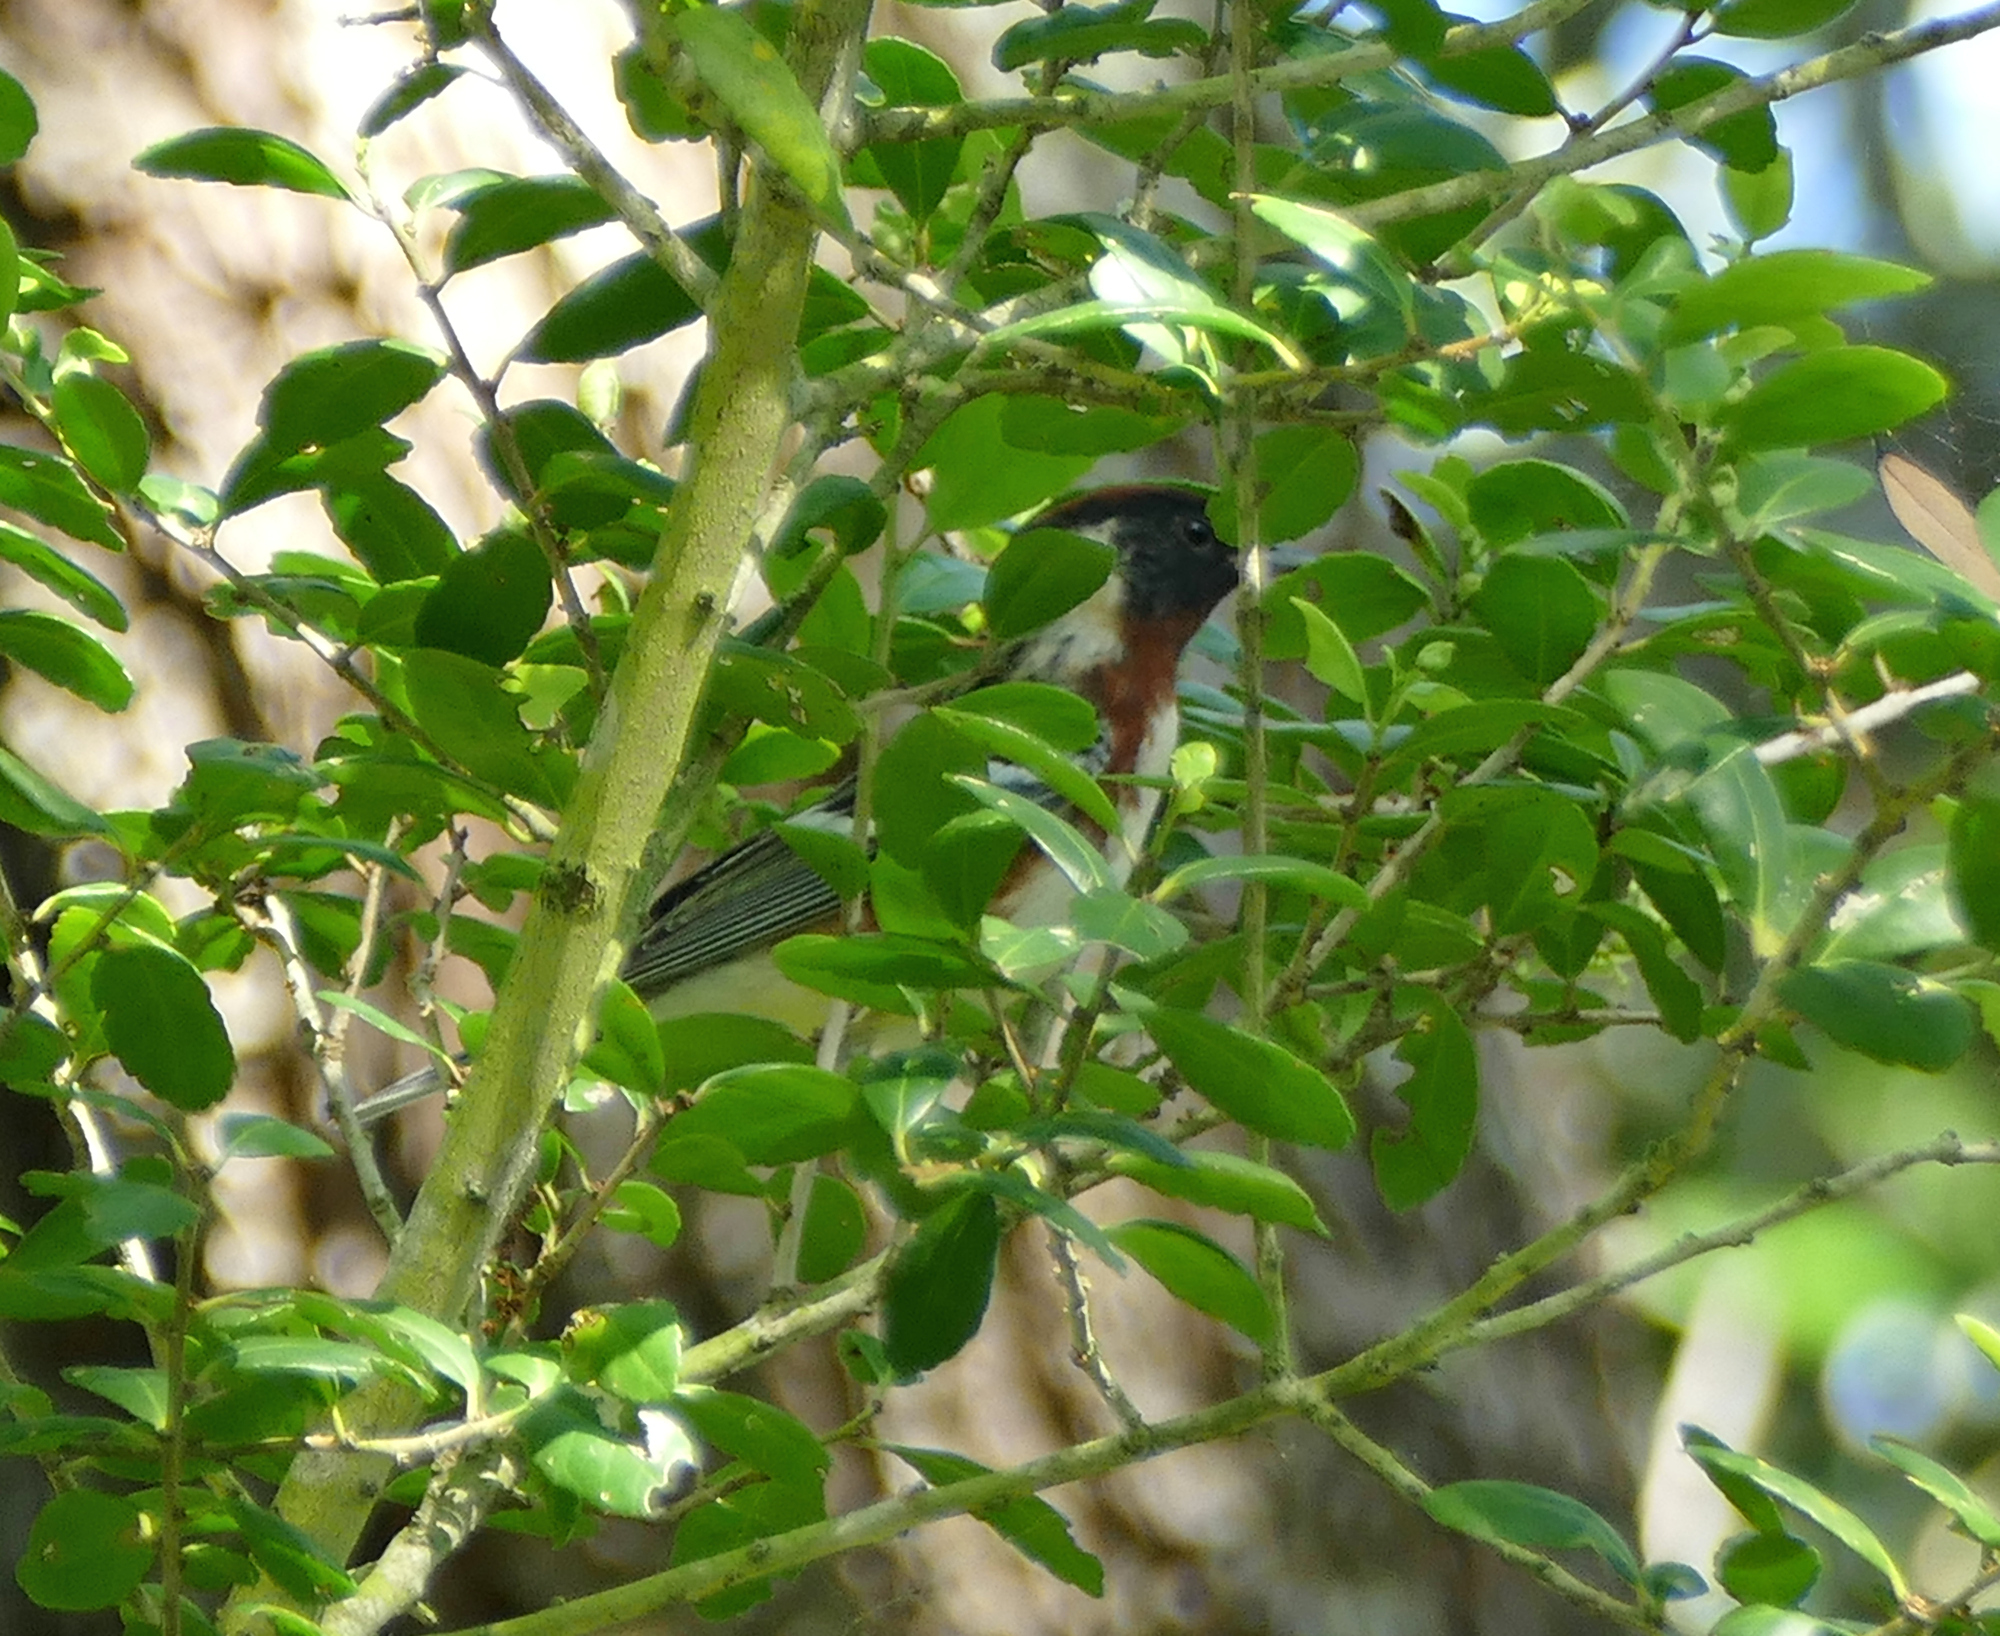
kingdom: Animalia
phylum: Chordata
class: Aves
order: Passeriformes
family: Parulidae
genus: Setophaga
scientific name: Setophaga castanea
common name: Bay-breasted warbler
